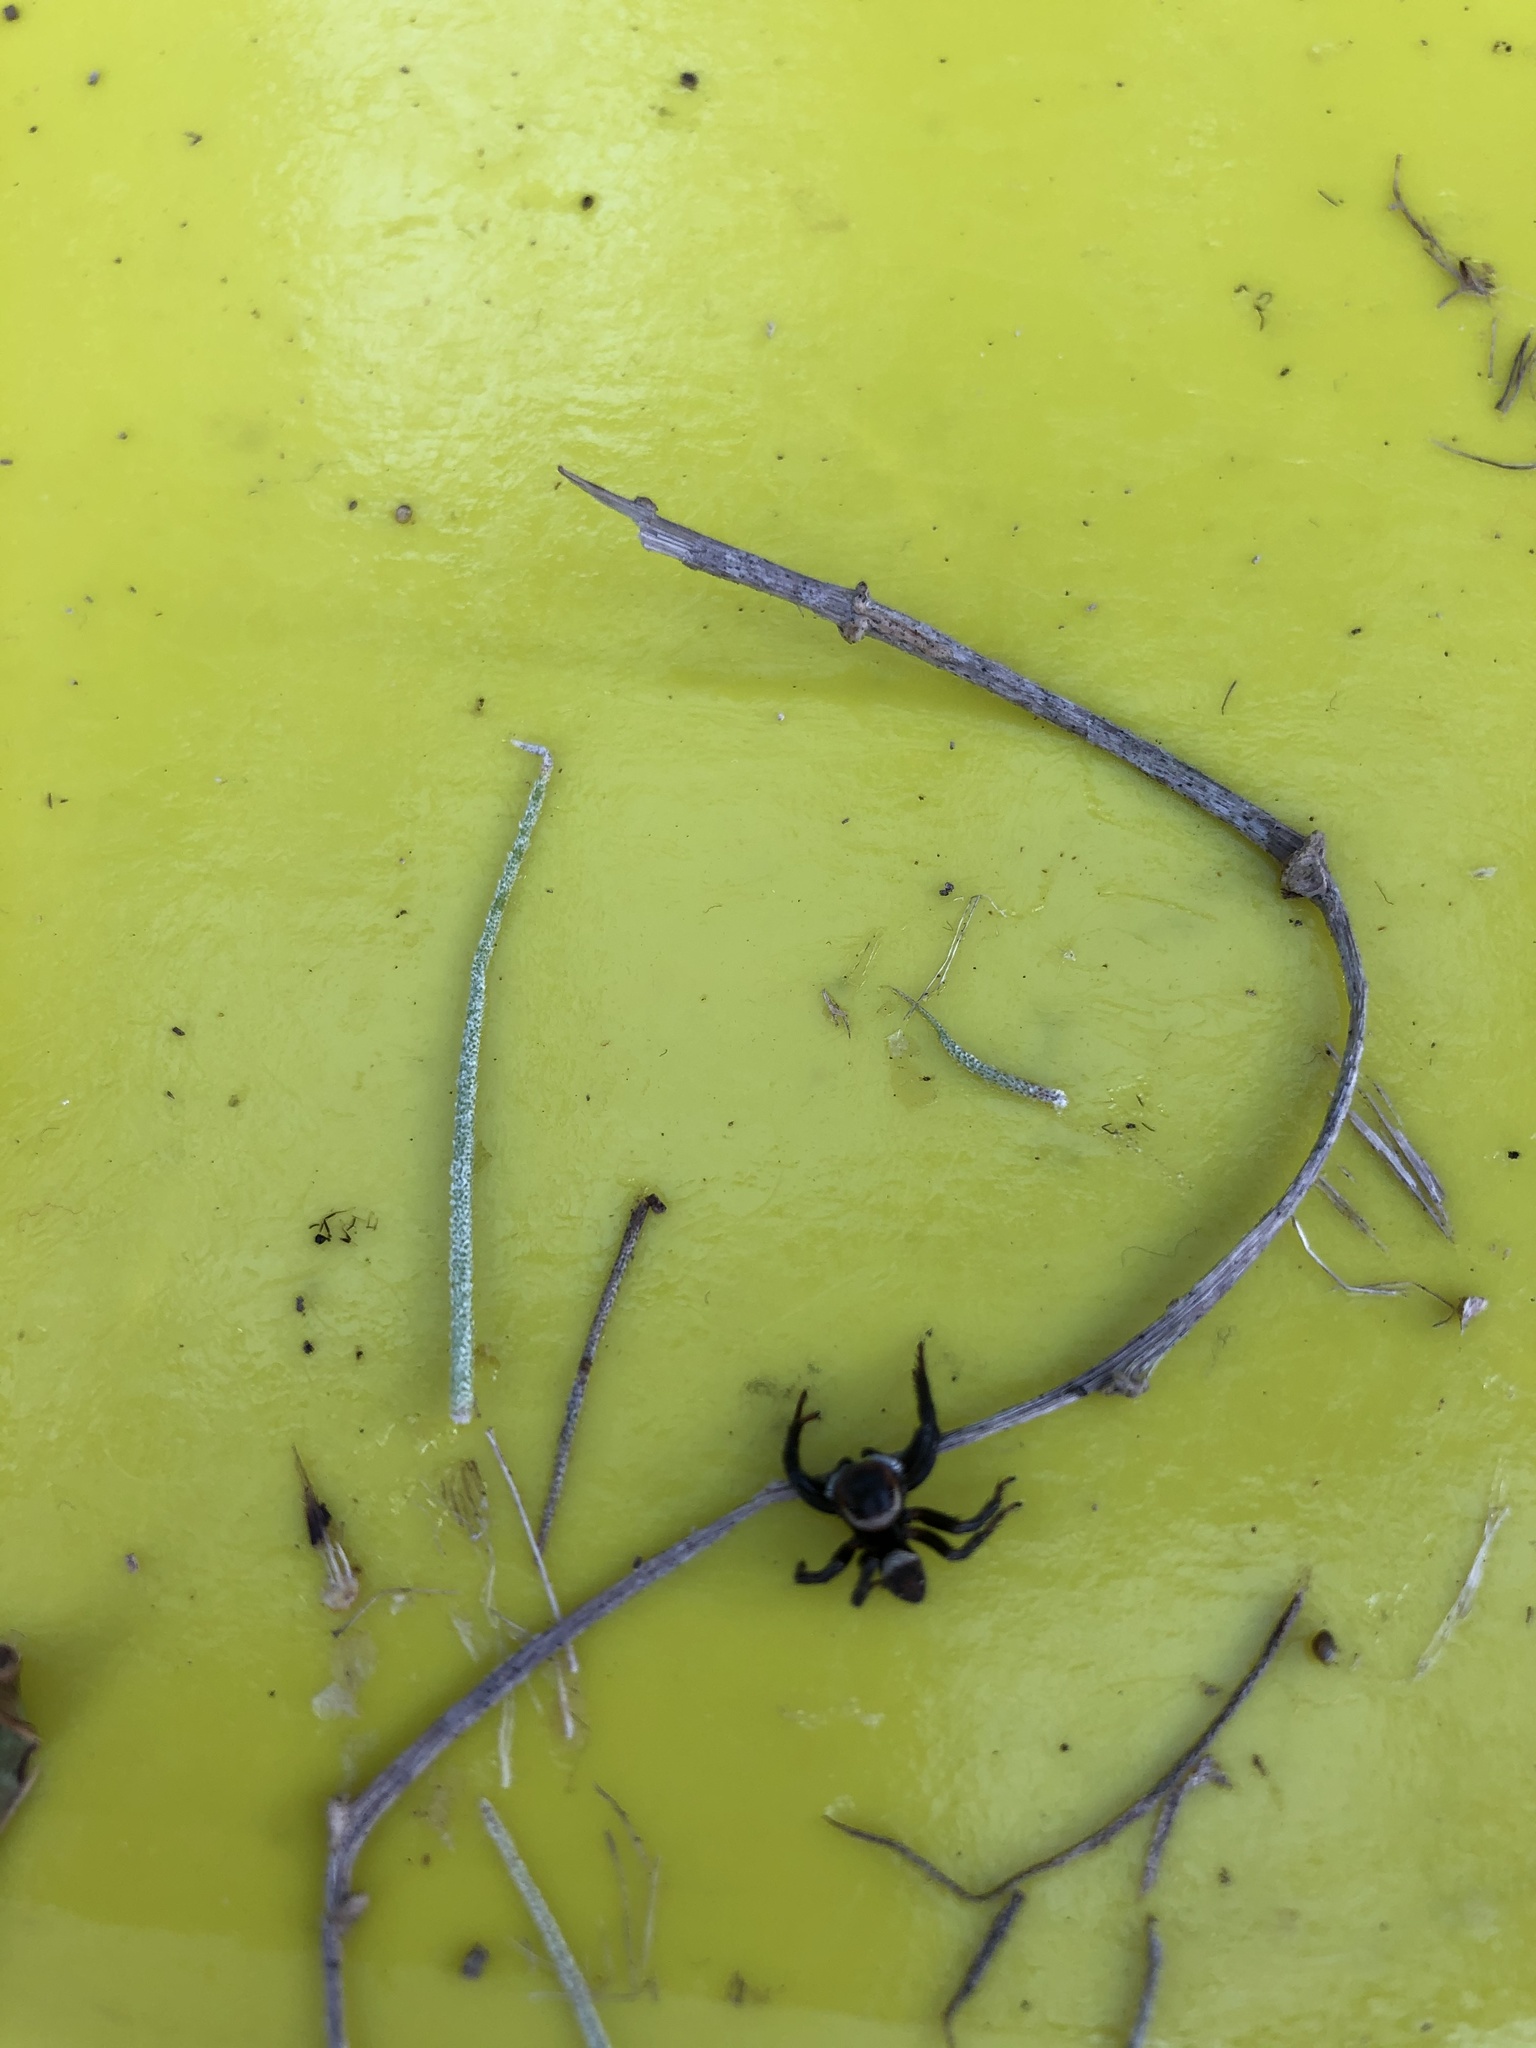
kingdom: Animalia
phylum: Arthropoda
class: Arachnida
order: Araneae
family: Salticidae
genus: Hasarius
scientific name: Hasarius adansoni
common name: Jumping spider
